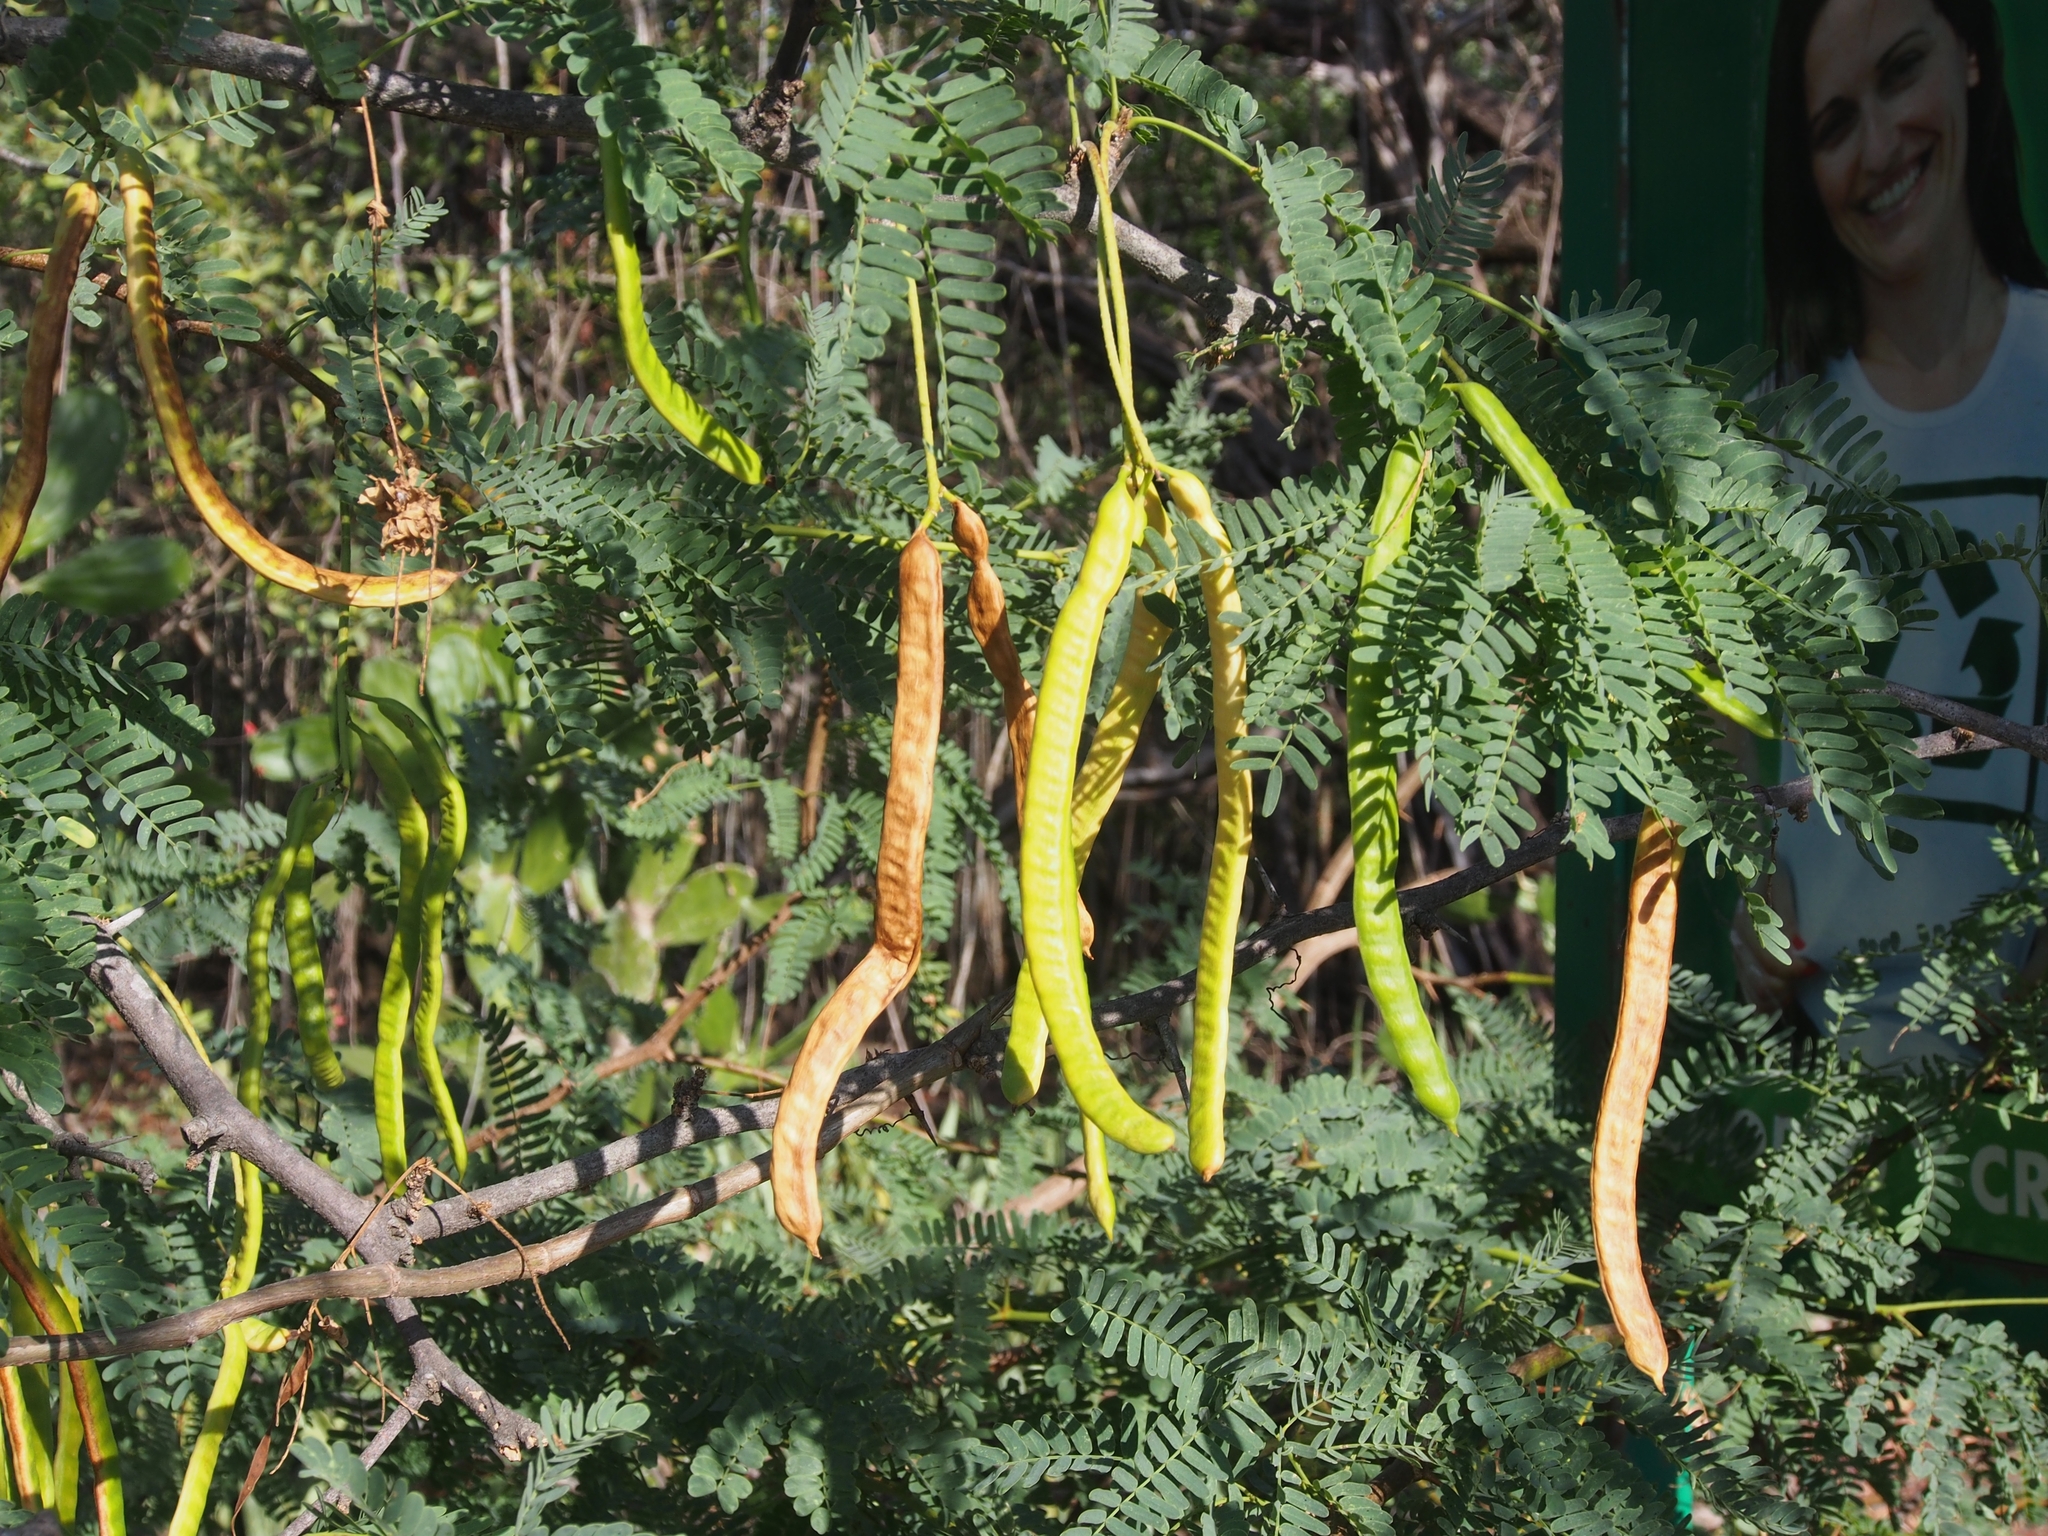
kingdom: Plantae
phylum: Tracheophyta
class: Magnoliopsida
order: Fabales
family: Fabaceae
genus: Prosopis
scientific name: Prosopis juliflora
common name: Mesquite
